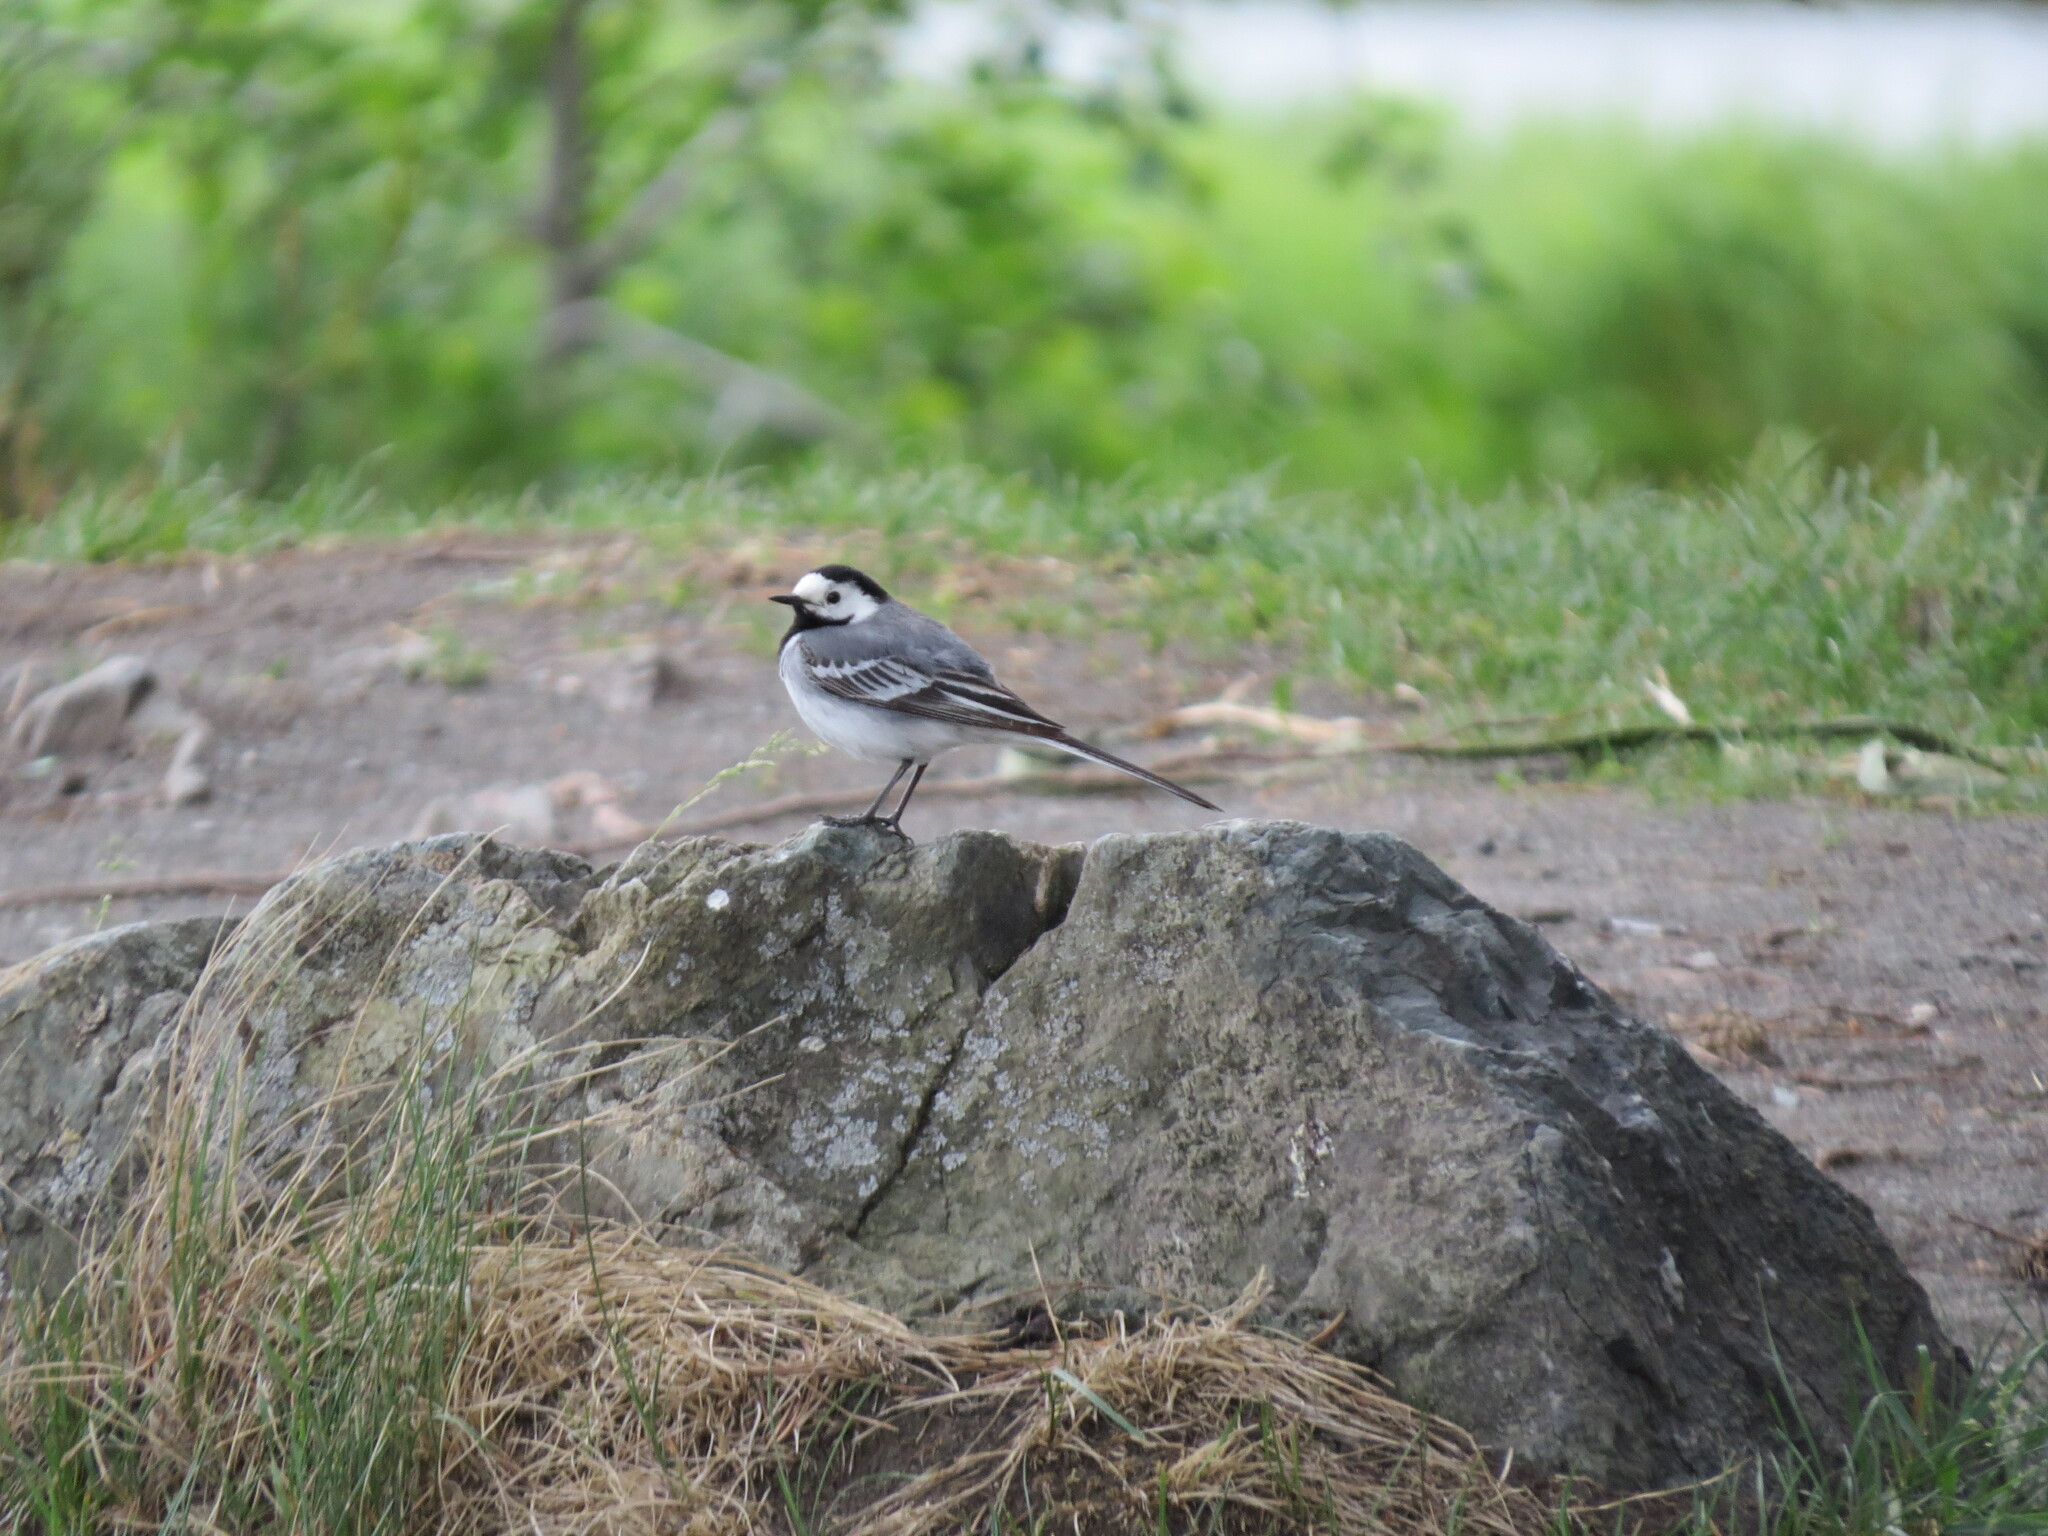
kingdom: Animalia
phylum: Chordata
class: Aves
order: Passeriformes
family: Motacillidae
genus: Motacilla
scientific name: Motacilla alba
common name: White wagtail
